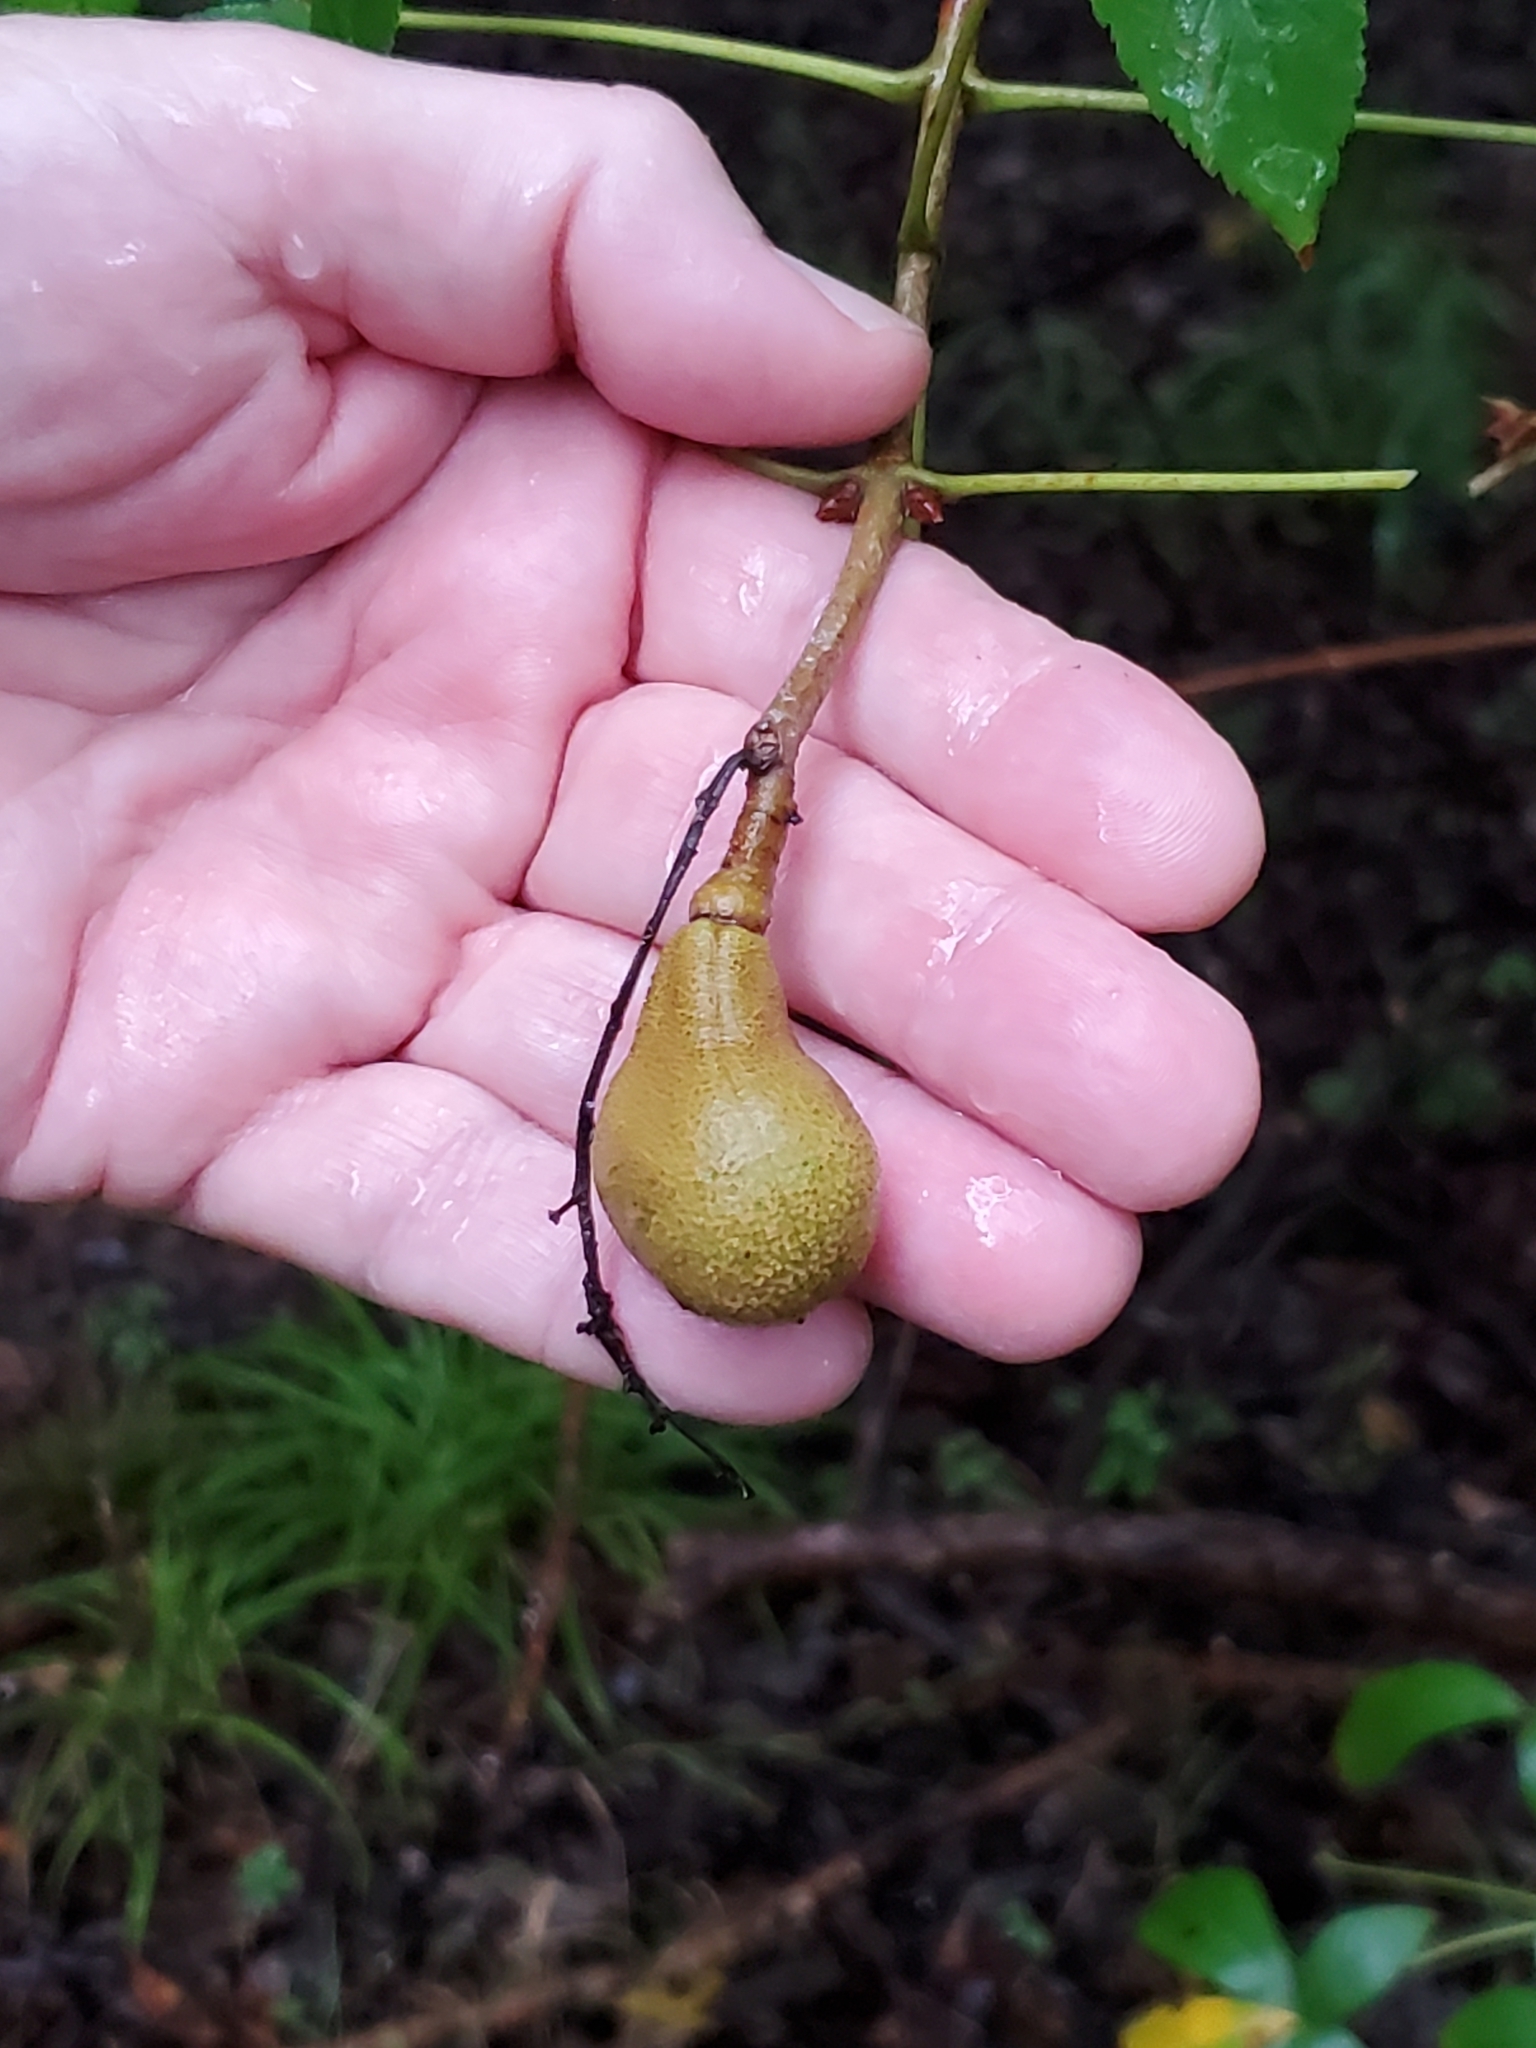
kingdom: Plantae
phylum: Tracheophyta
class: Magnoliopsida
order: Sapindales
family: Sapindaceae
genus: Aesculus
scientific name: Aesculus pavia
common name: Red buckeye
